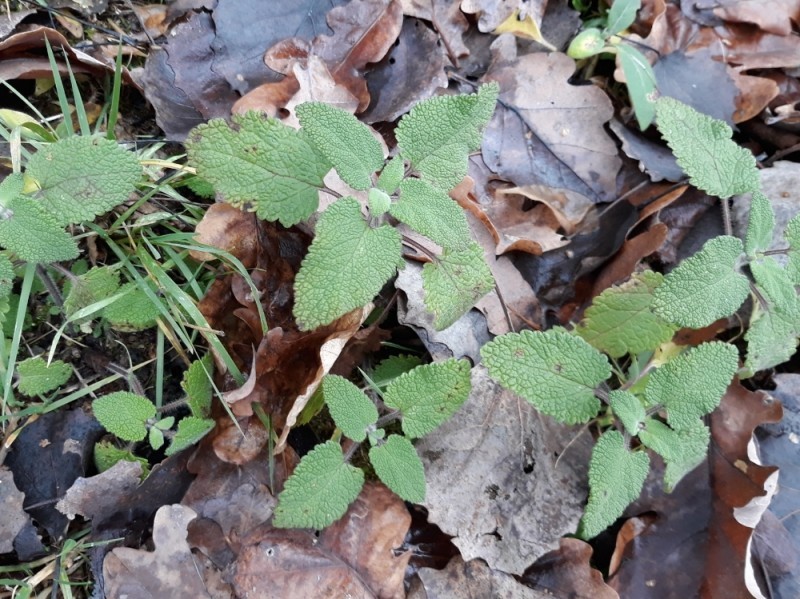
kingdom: Plantae
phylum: Tracheophyta
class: Magnoliopsida
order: Lamiales
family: Lamiaceae
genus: Teucrium
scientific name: Teucrium scorodonia
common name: Woodland germander
